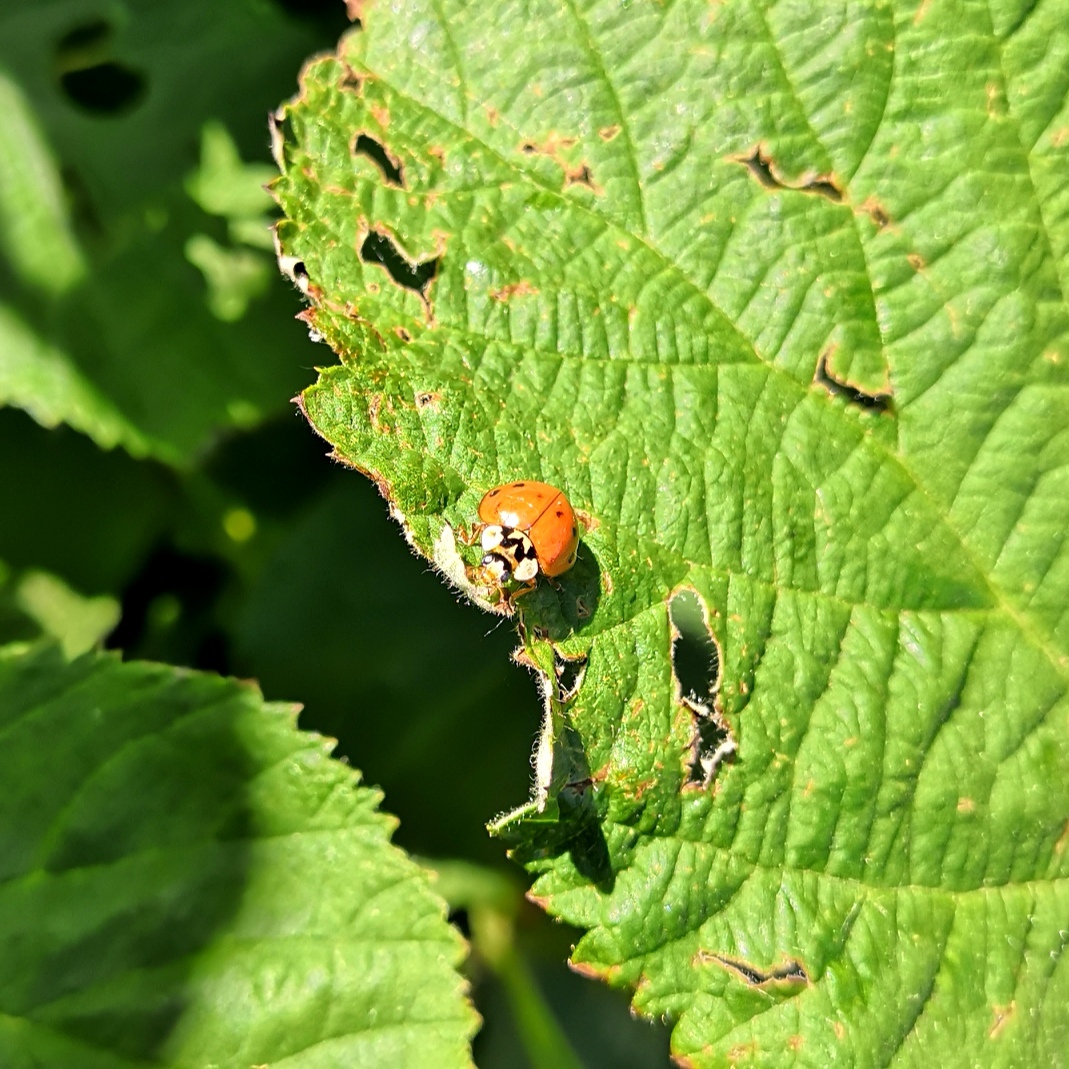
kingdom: Animalia
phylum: Arthropoda
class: Insecta
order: Coleoptera
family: Coccinellidae
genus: Harmonia
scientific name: Harmonia axyridis
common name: Harlequin ladybird
